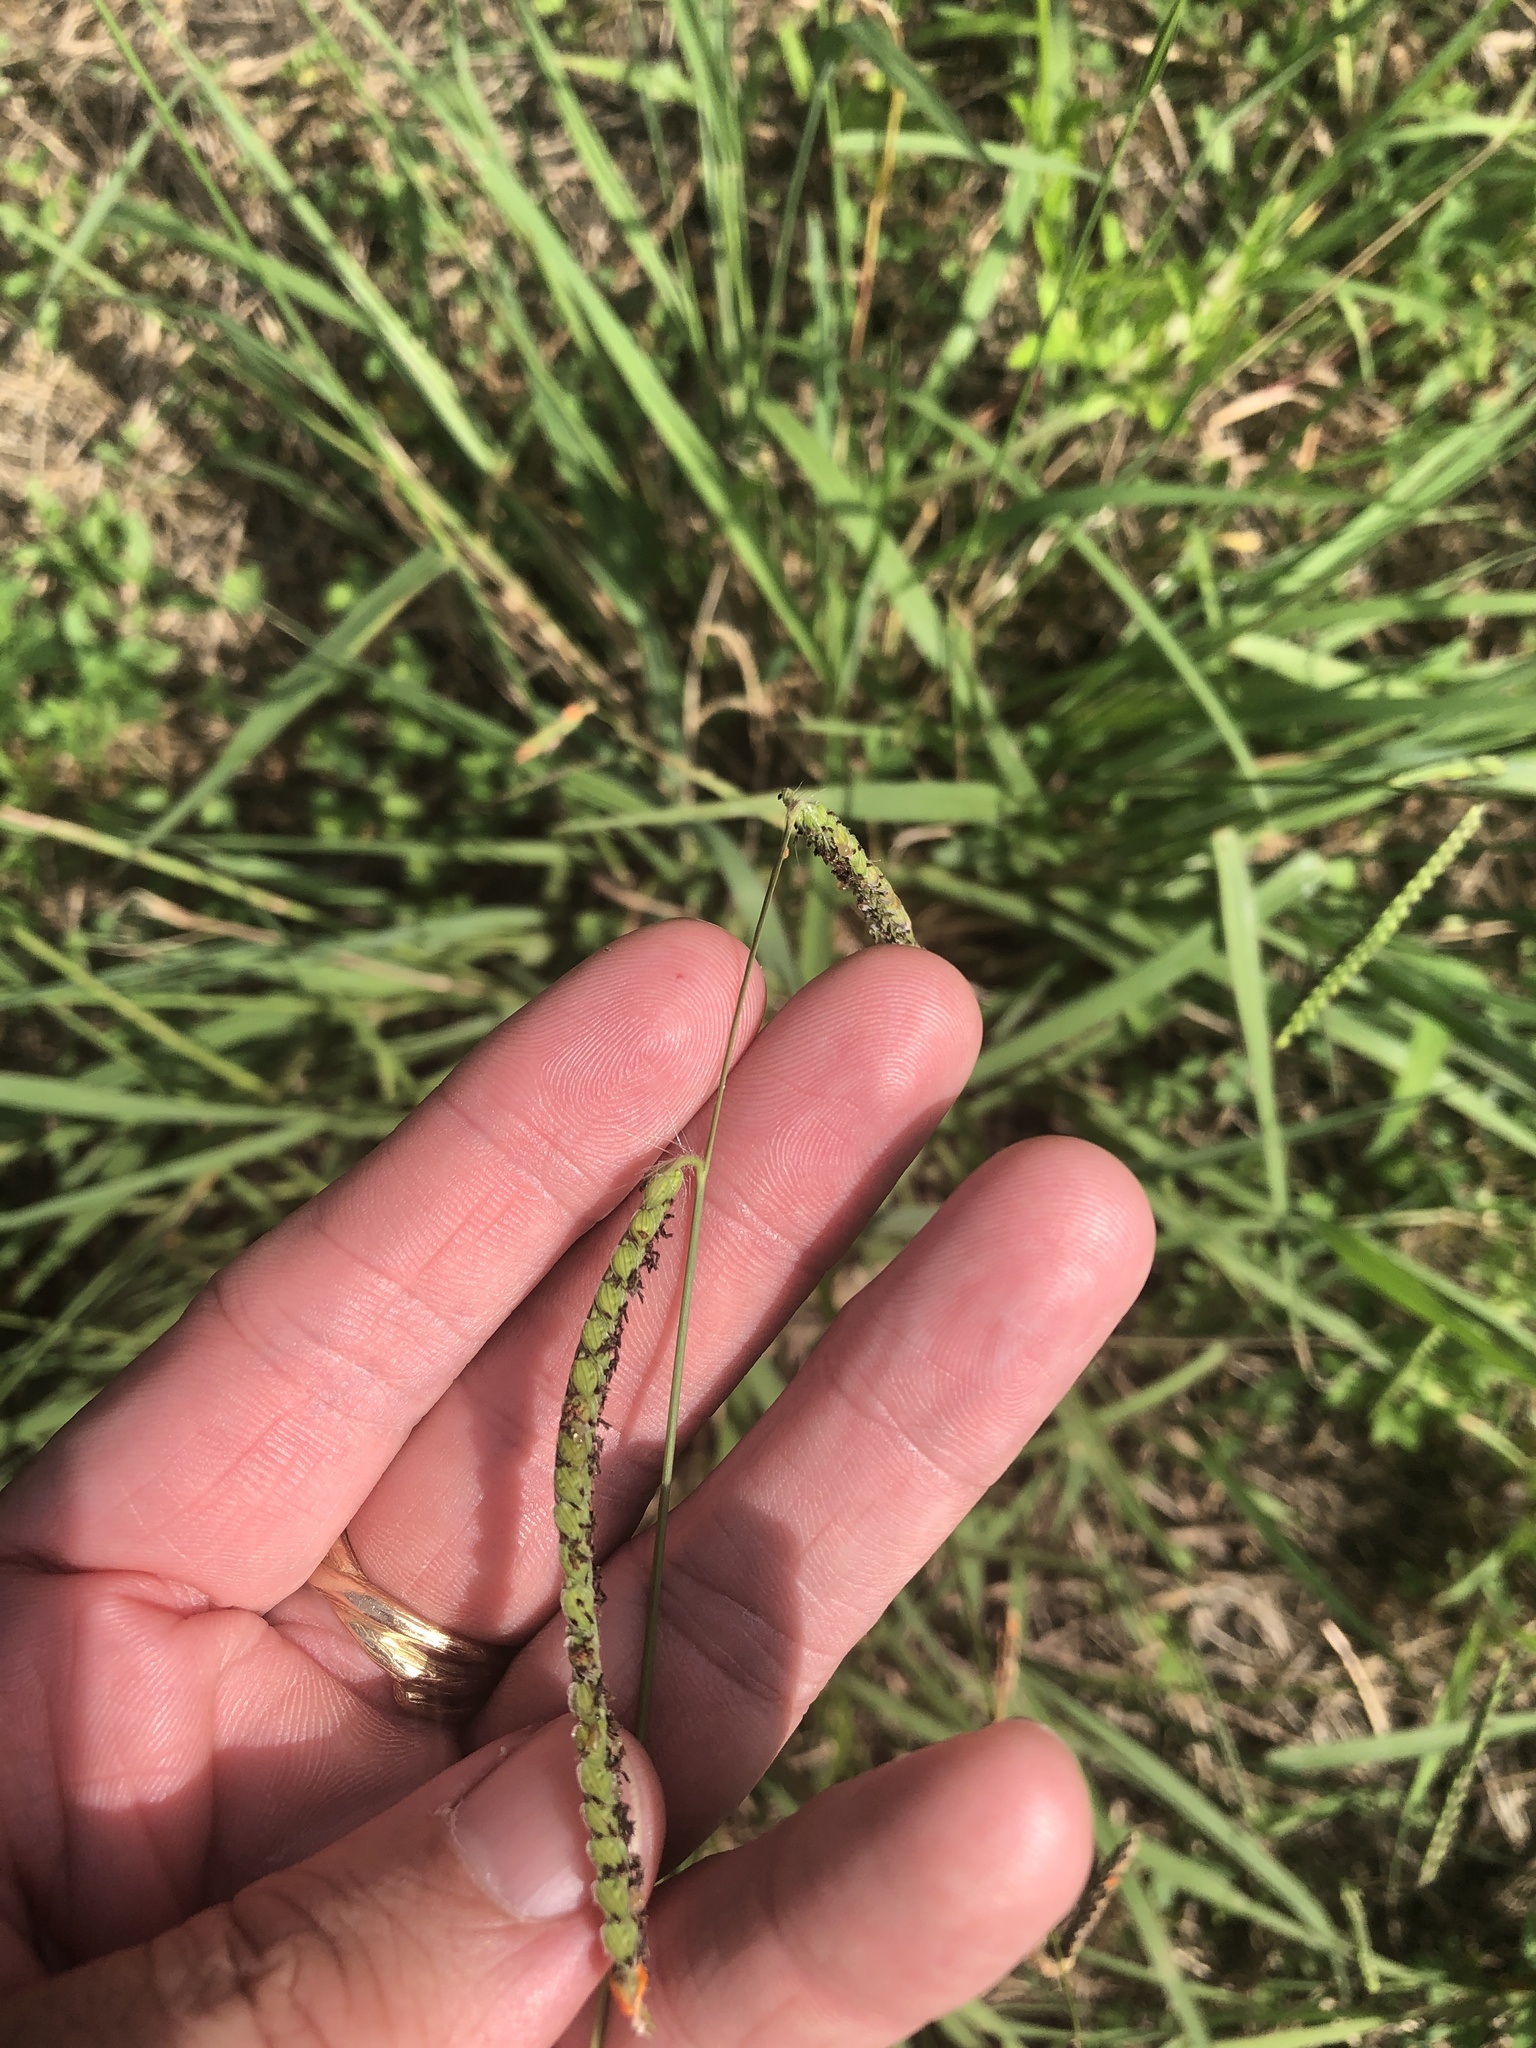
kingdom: Plantae
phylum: Tracheophyta
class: Liliopsida
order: Poales
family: Poaceae
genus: Paspalum
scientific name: Paspalum dilatatum
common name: Dallisgrass
